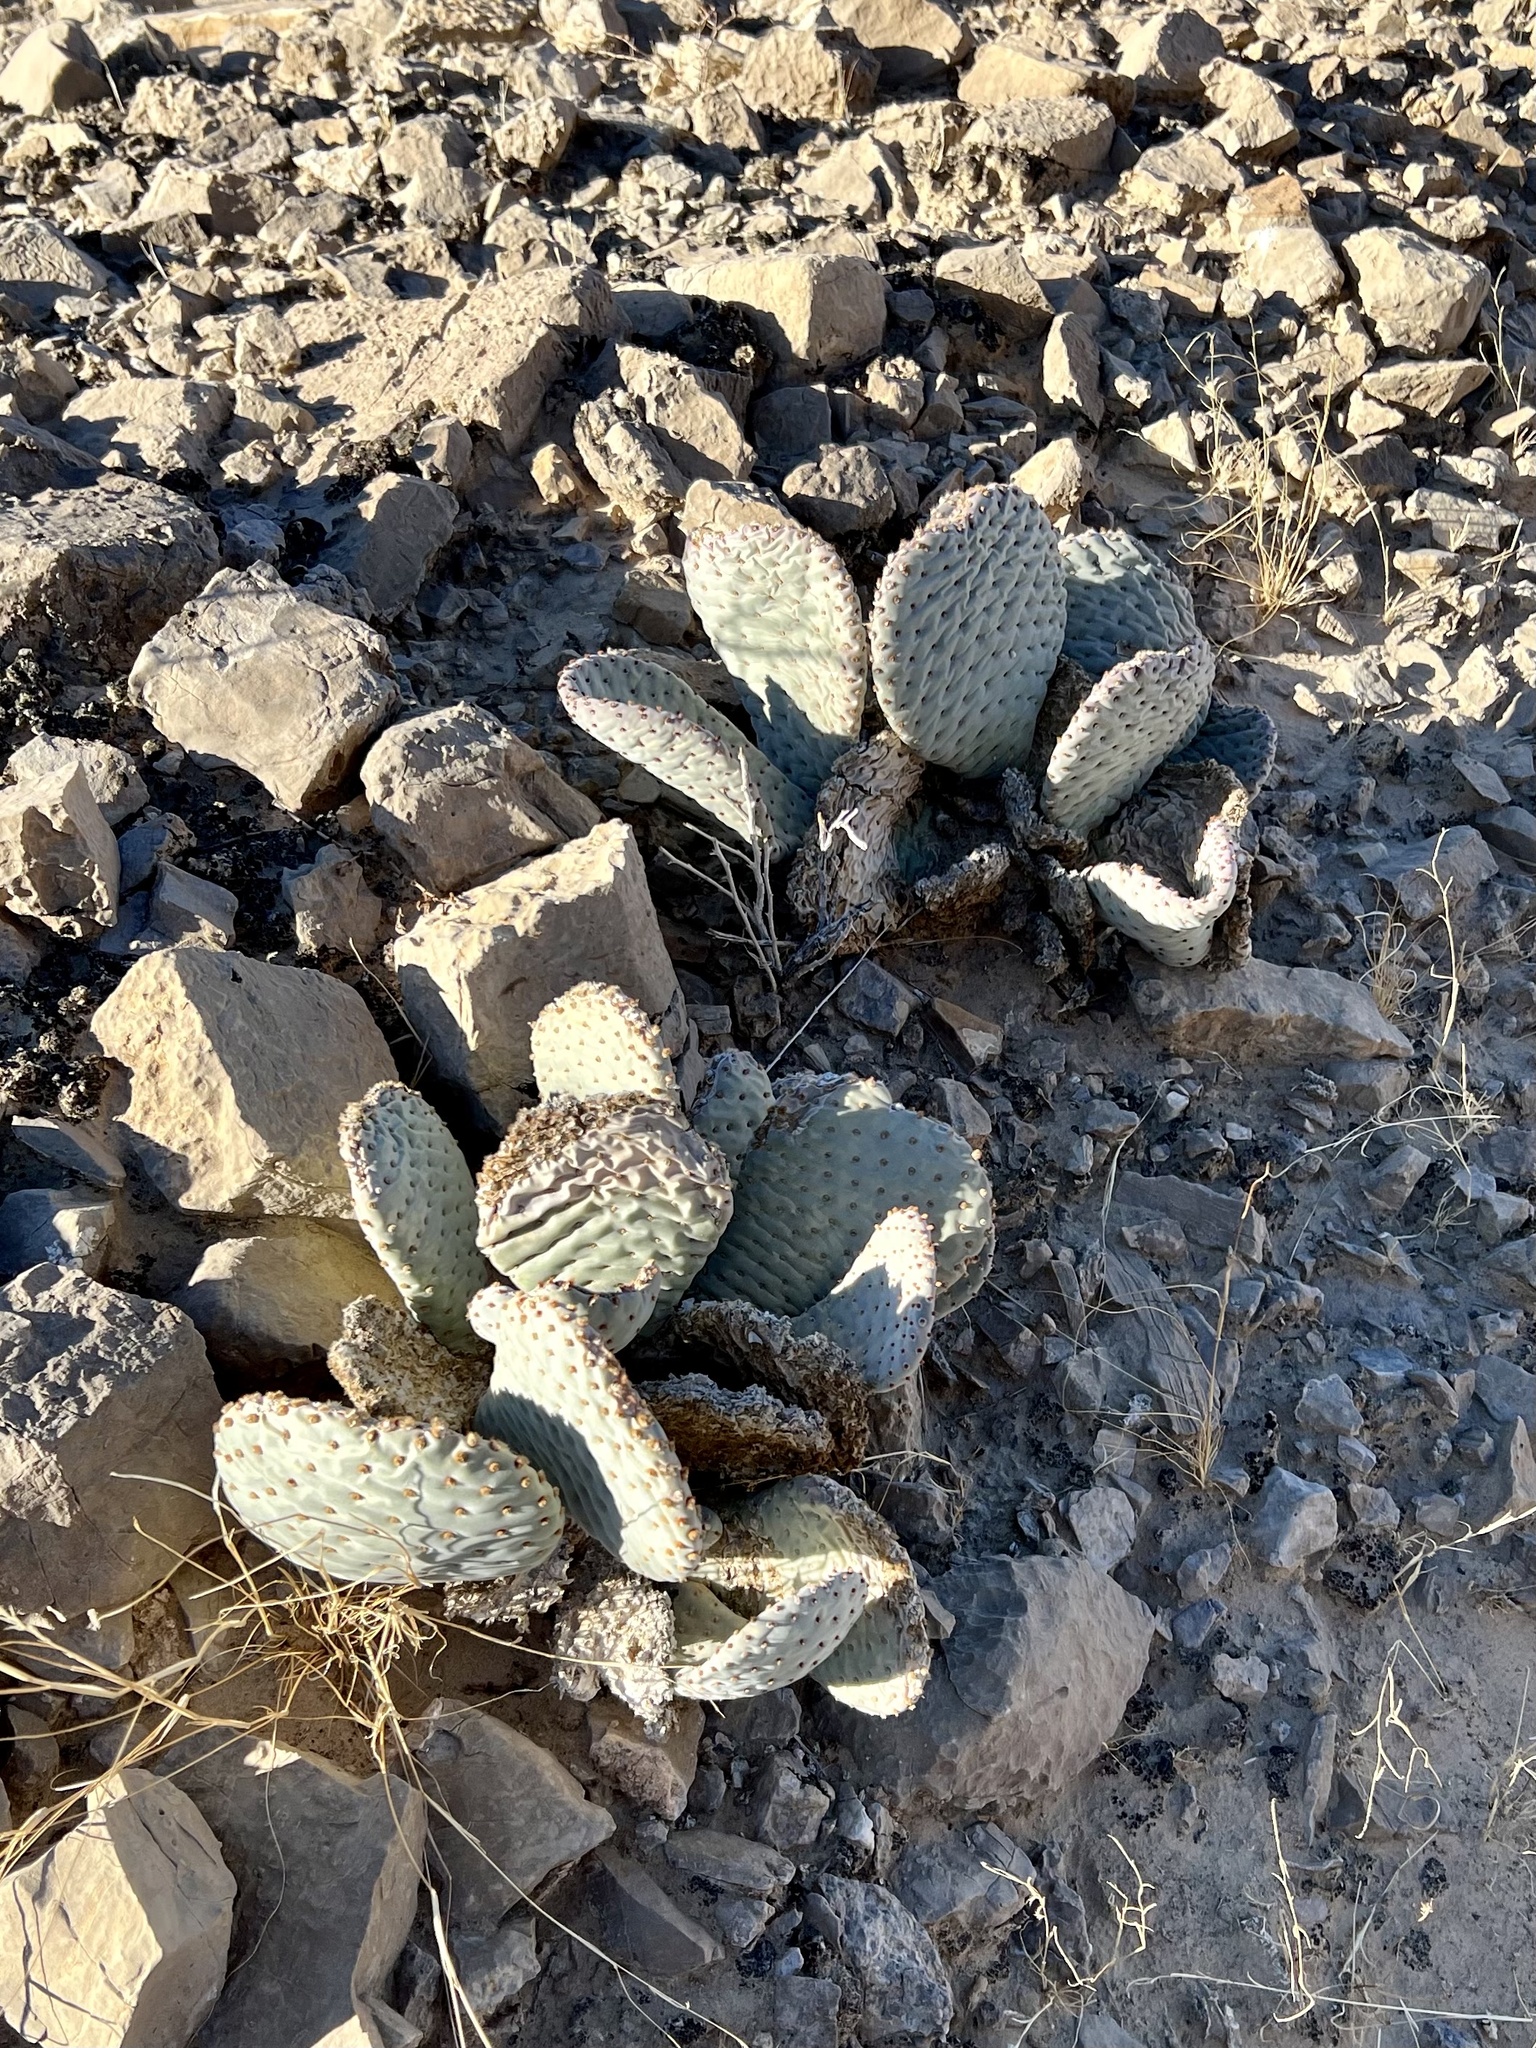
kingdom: Plantae
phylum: Tracheophyta
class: Magnoliopsida
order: Caryophyllales
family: Cactaceae
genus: Opuntia
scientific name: Opuntia basilaris
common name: Beavertail prickly-pear
